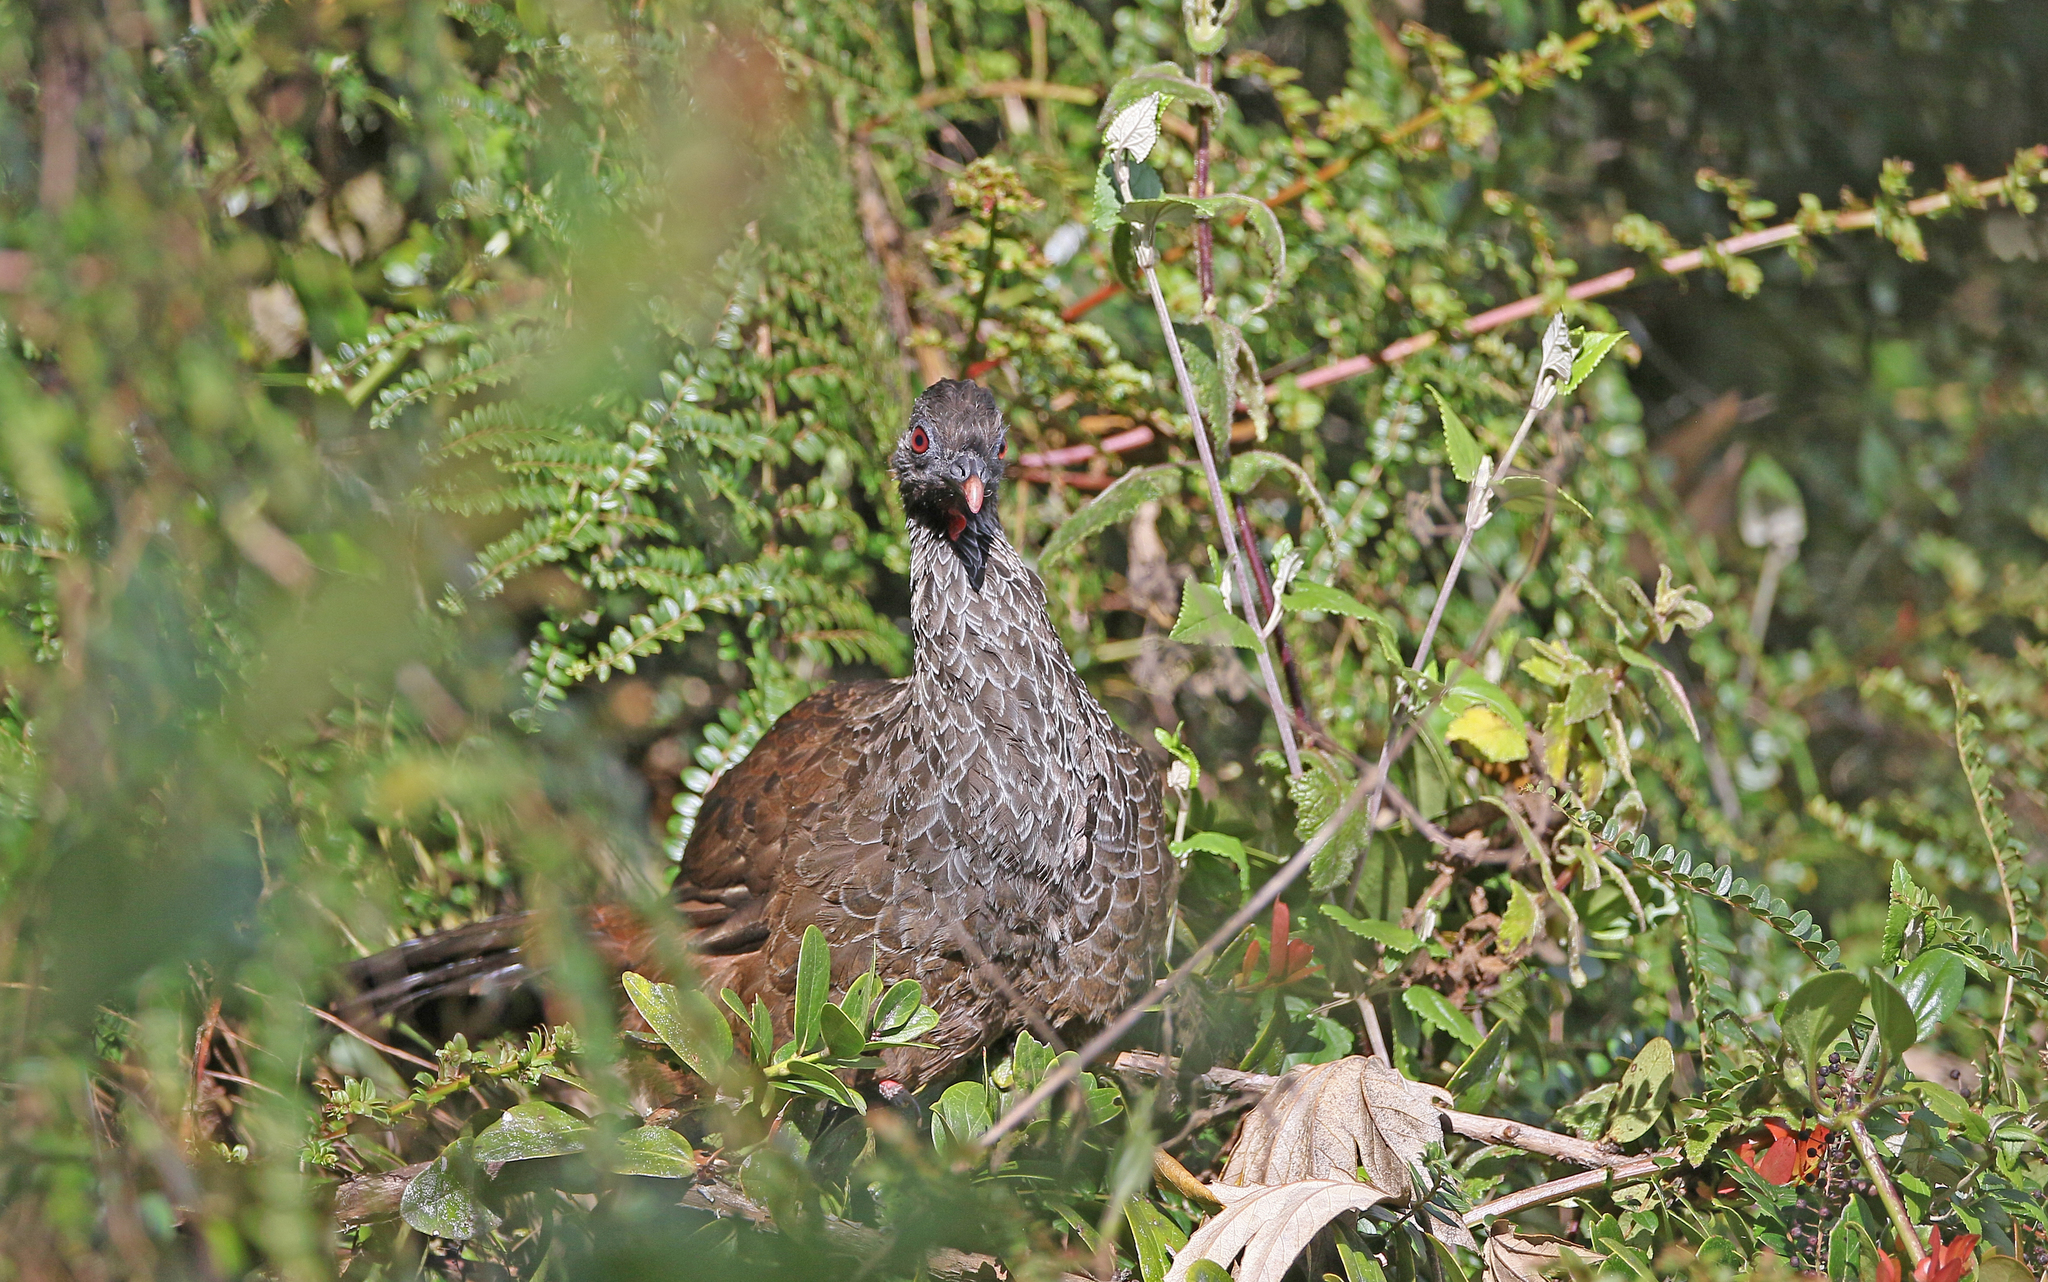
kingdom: Animalia
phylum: Chordata
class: Aves
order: Galliformes
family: Cracidae
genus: Penelope
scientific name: Penelope montagnii
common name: Andean guan
